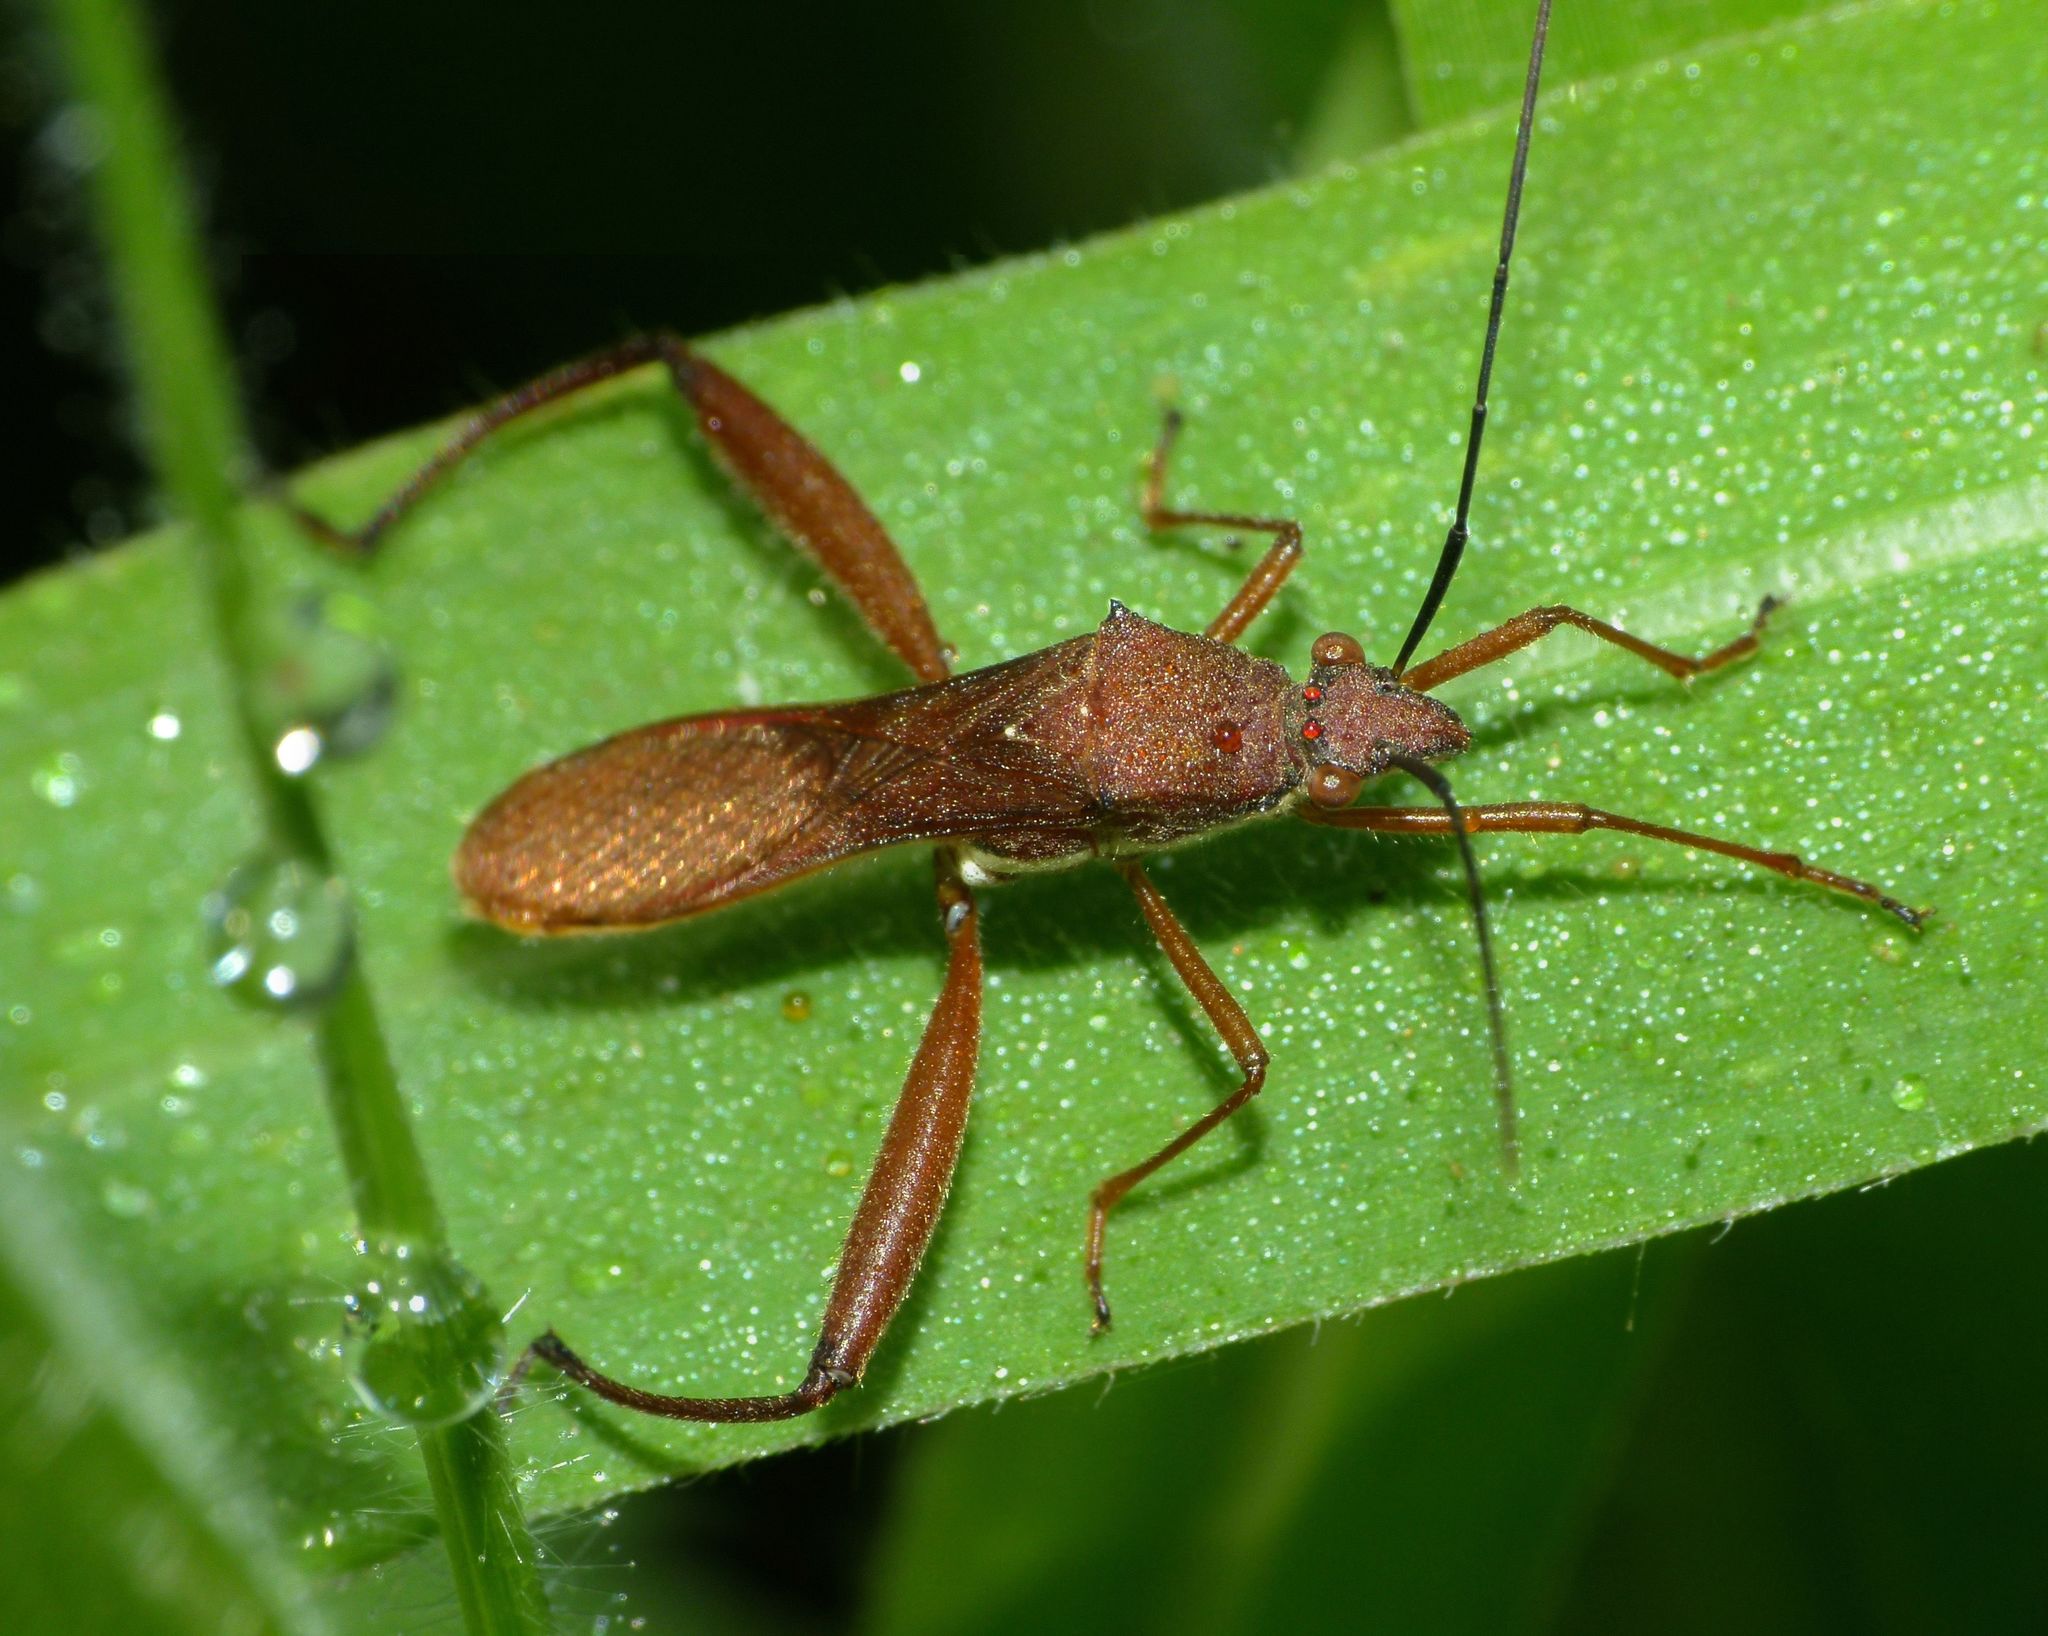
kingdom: Animalia
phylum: Arthropoda
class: Insecta
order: Hemiptera
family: Alydidae
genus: Riptortus
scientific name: Riptortus linearis
